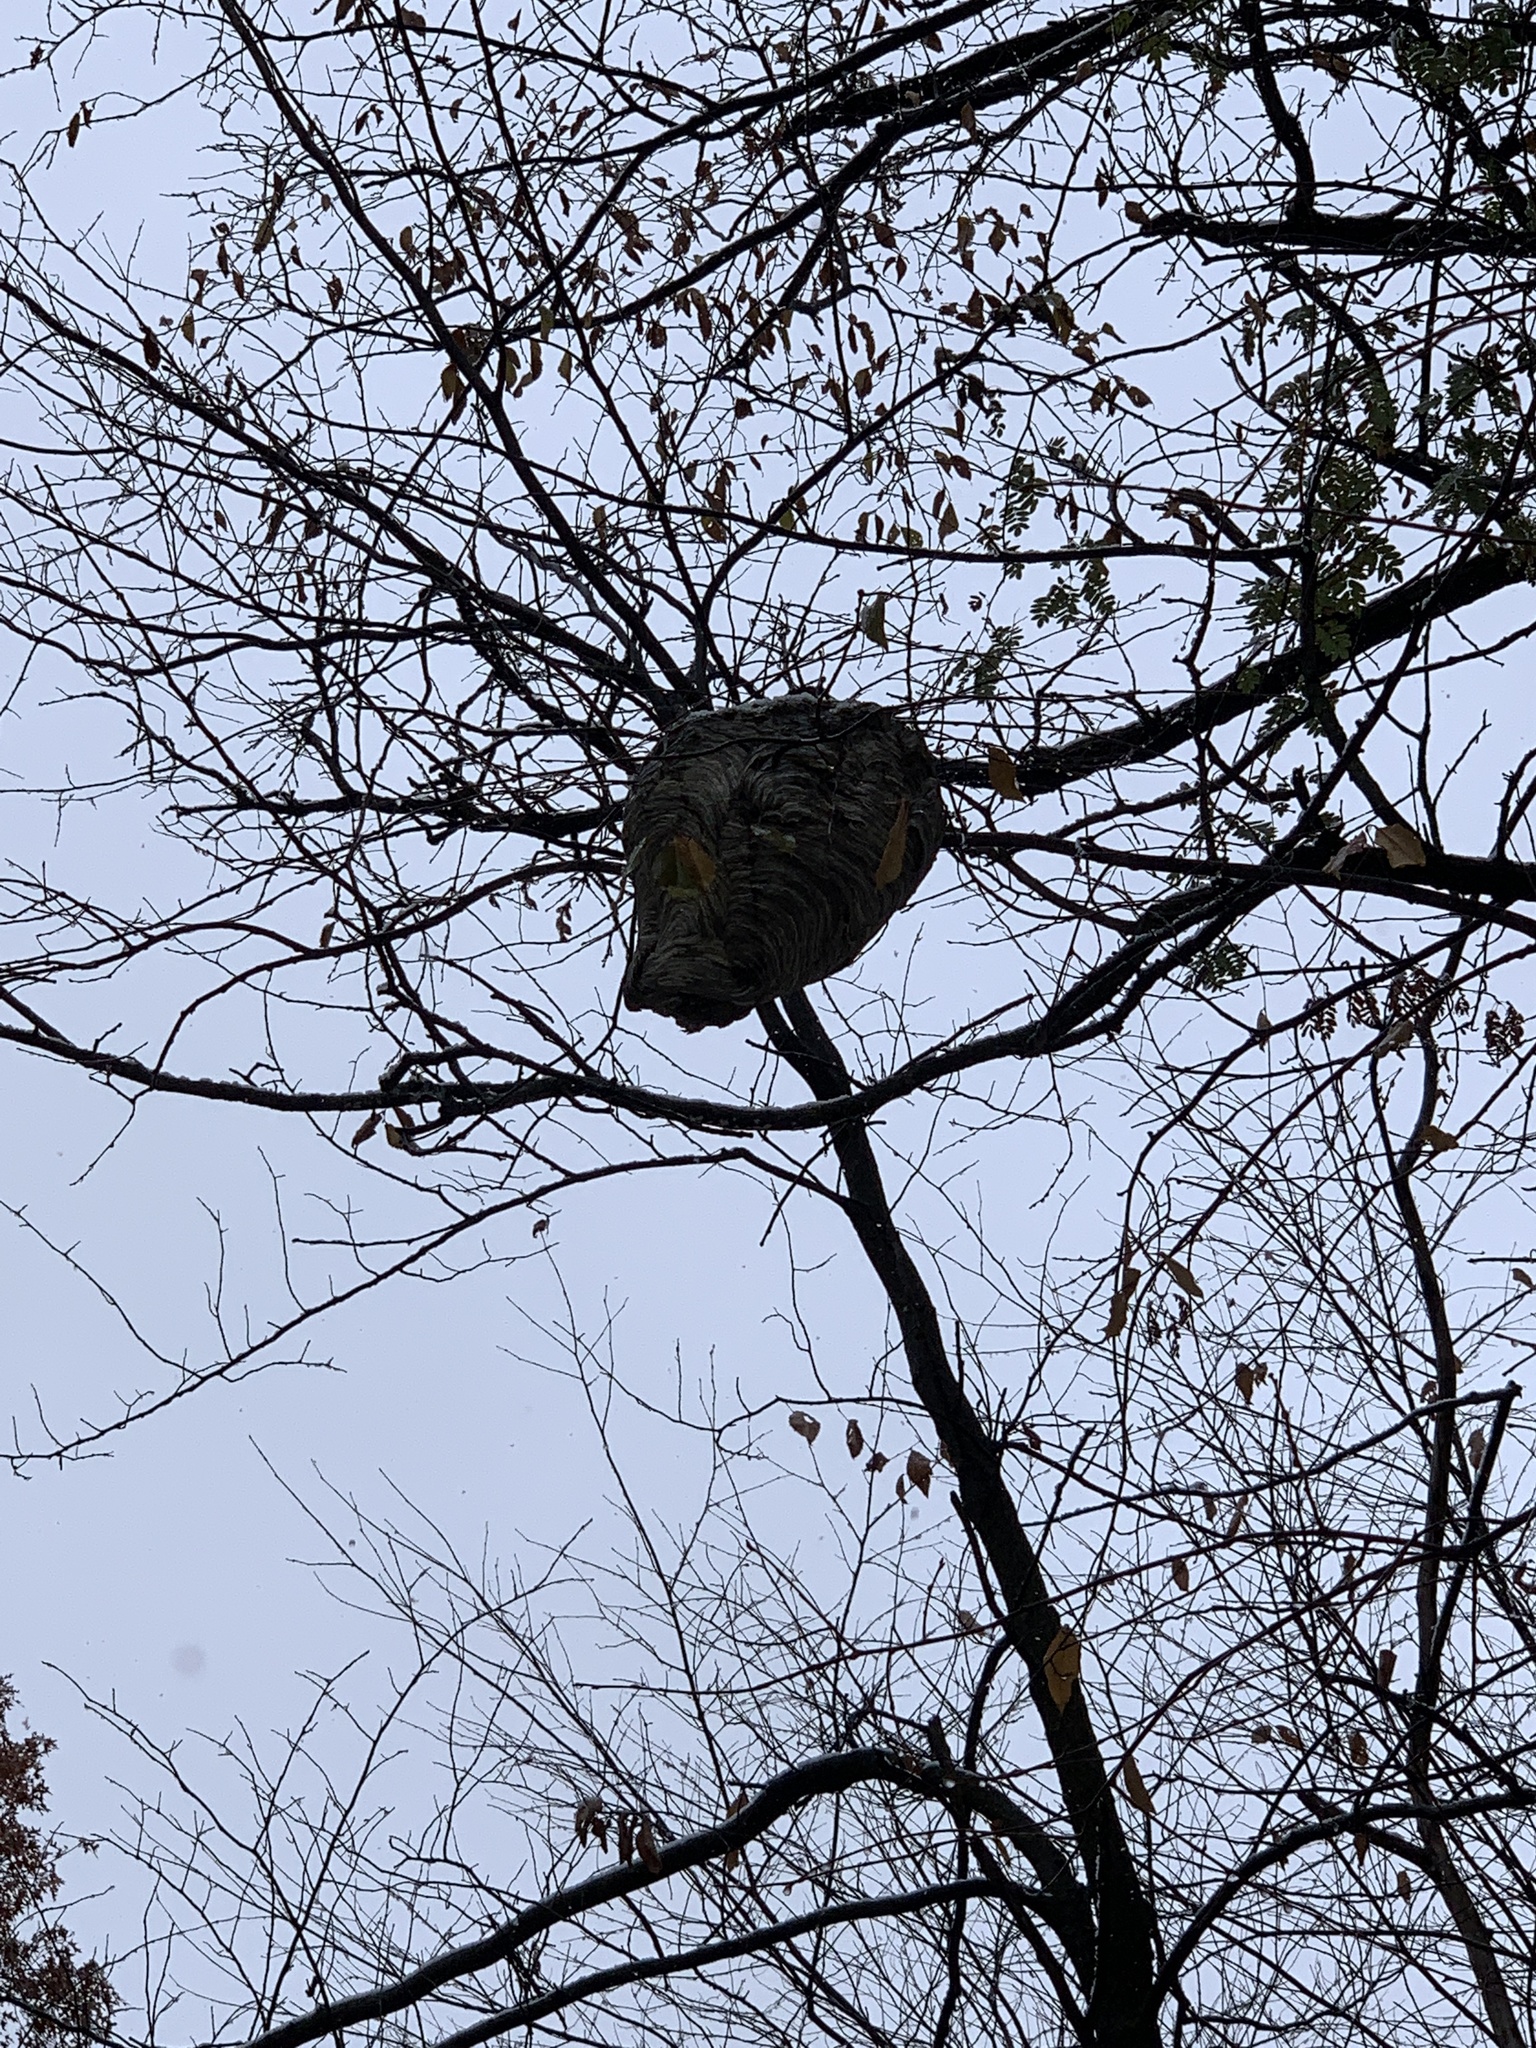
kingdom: Animalia
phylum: Arthropoda
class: Insecta
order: Hymenoptera
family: Vespidae
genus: Dolichovespula
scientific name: Dolichovespula maculata
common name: Bald-faced hornet
